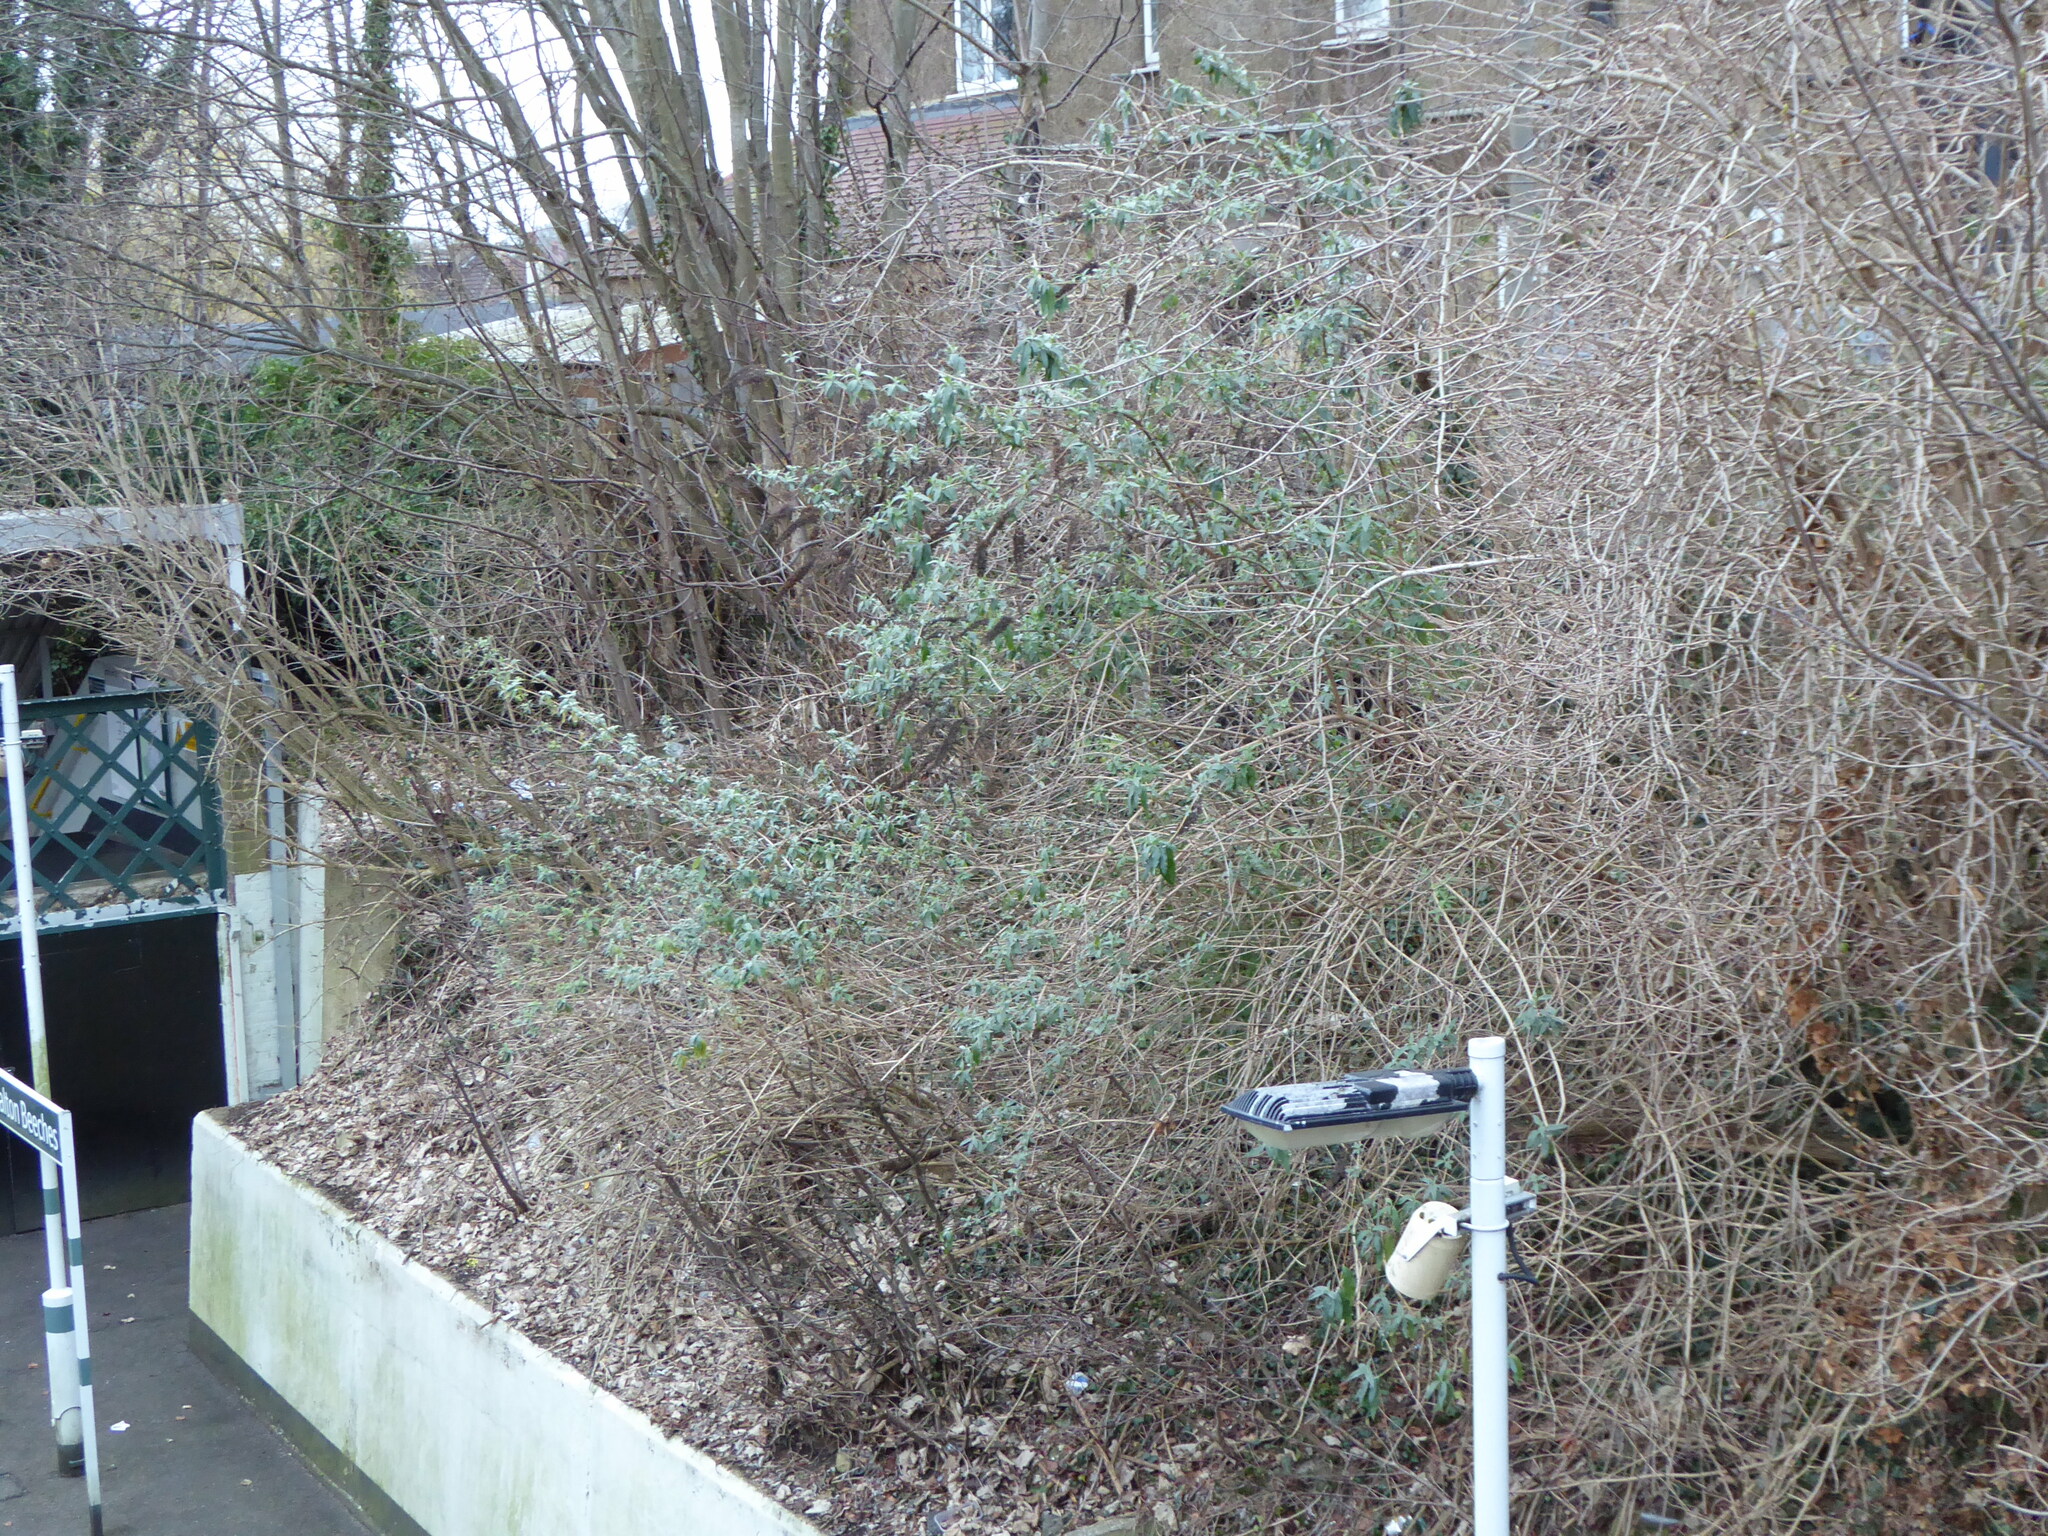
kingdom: Plantae
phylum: Tracheophyta
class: Magnoliopsida
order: Lamiales
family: Scrophulariaceae
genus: Buddleja
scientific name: Buddleja davidii
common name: Butterfly-bush
